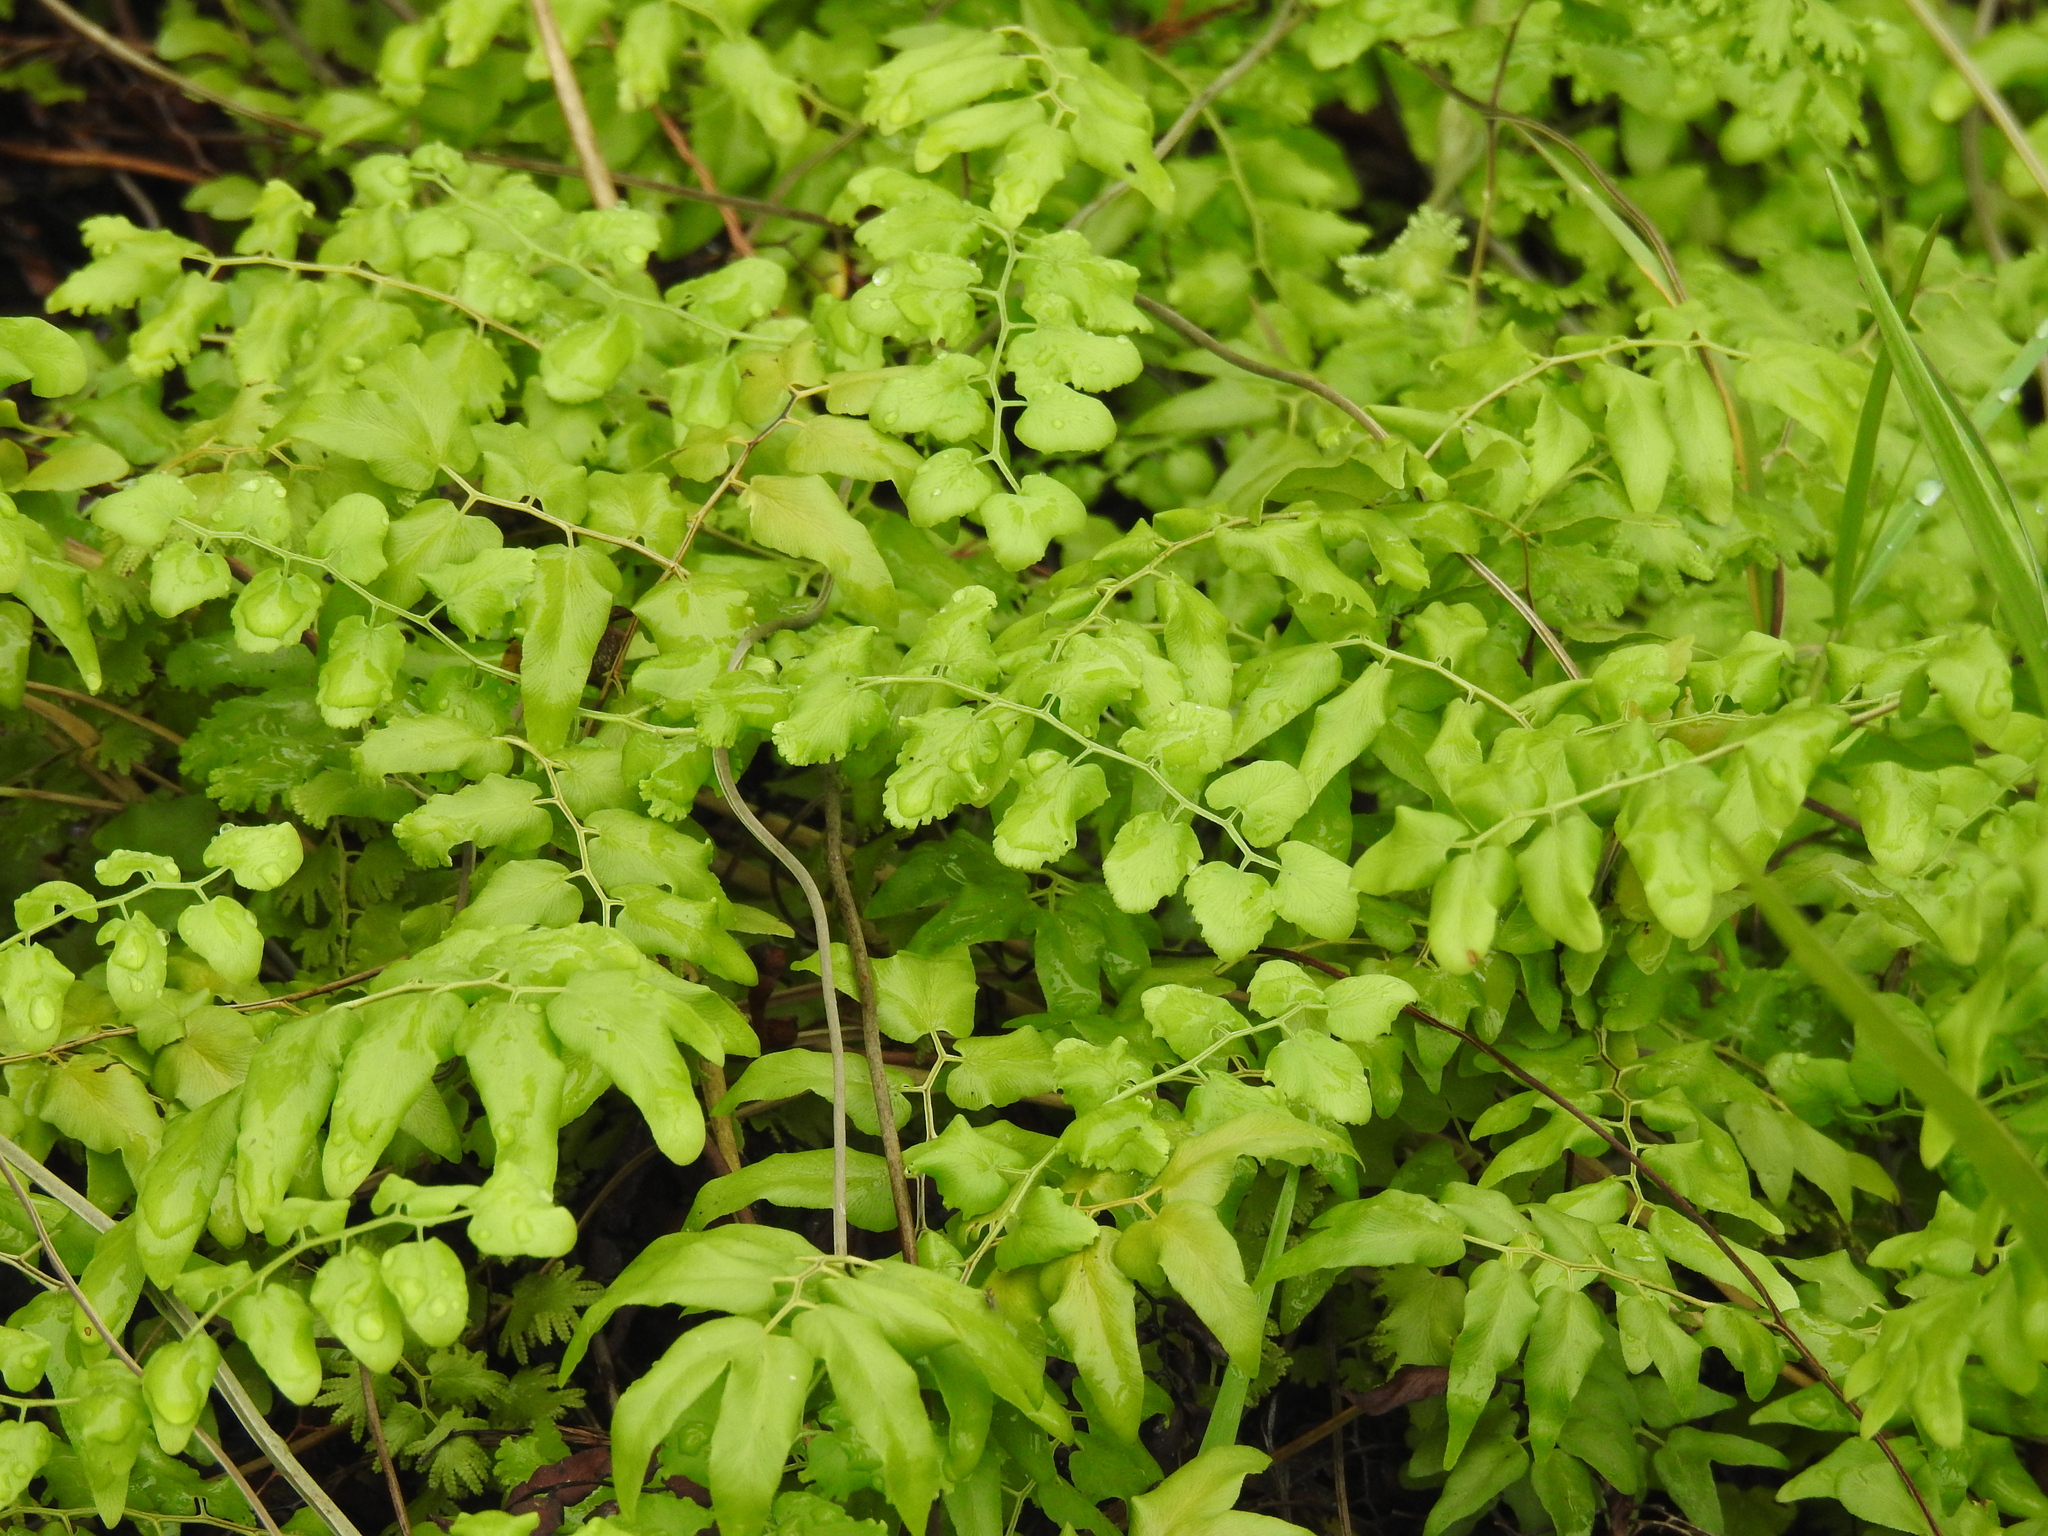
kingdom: Plantae
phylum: Tracheophyta
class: Polypodiopsida
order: Schizaeales
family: Lygodiaceae
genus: Lygodium
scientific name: Lygodium microphyllum
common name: Small-leaf climbing fern
